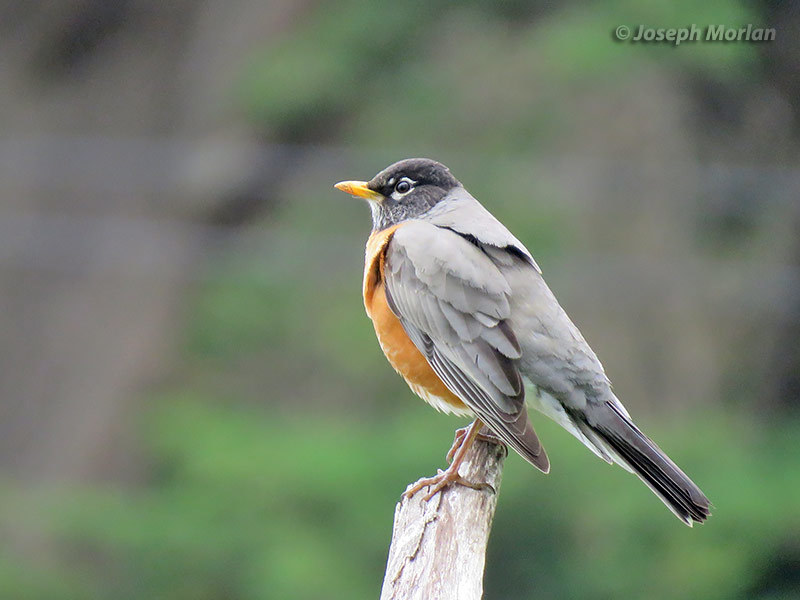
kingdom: Animalia
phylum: Chordata
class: Aves
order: Passeriformes
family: Turdidae
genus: Turdus
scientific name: Turdus migratorius
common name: American robin
